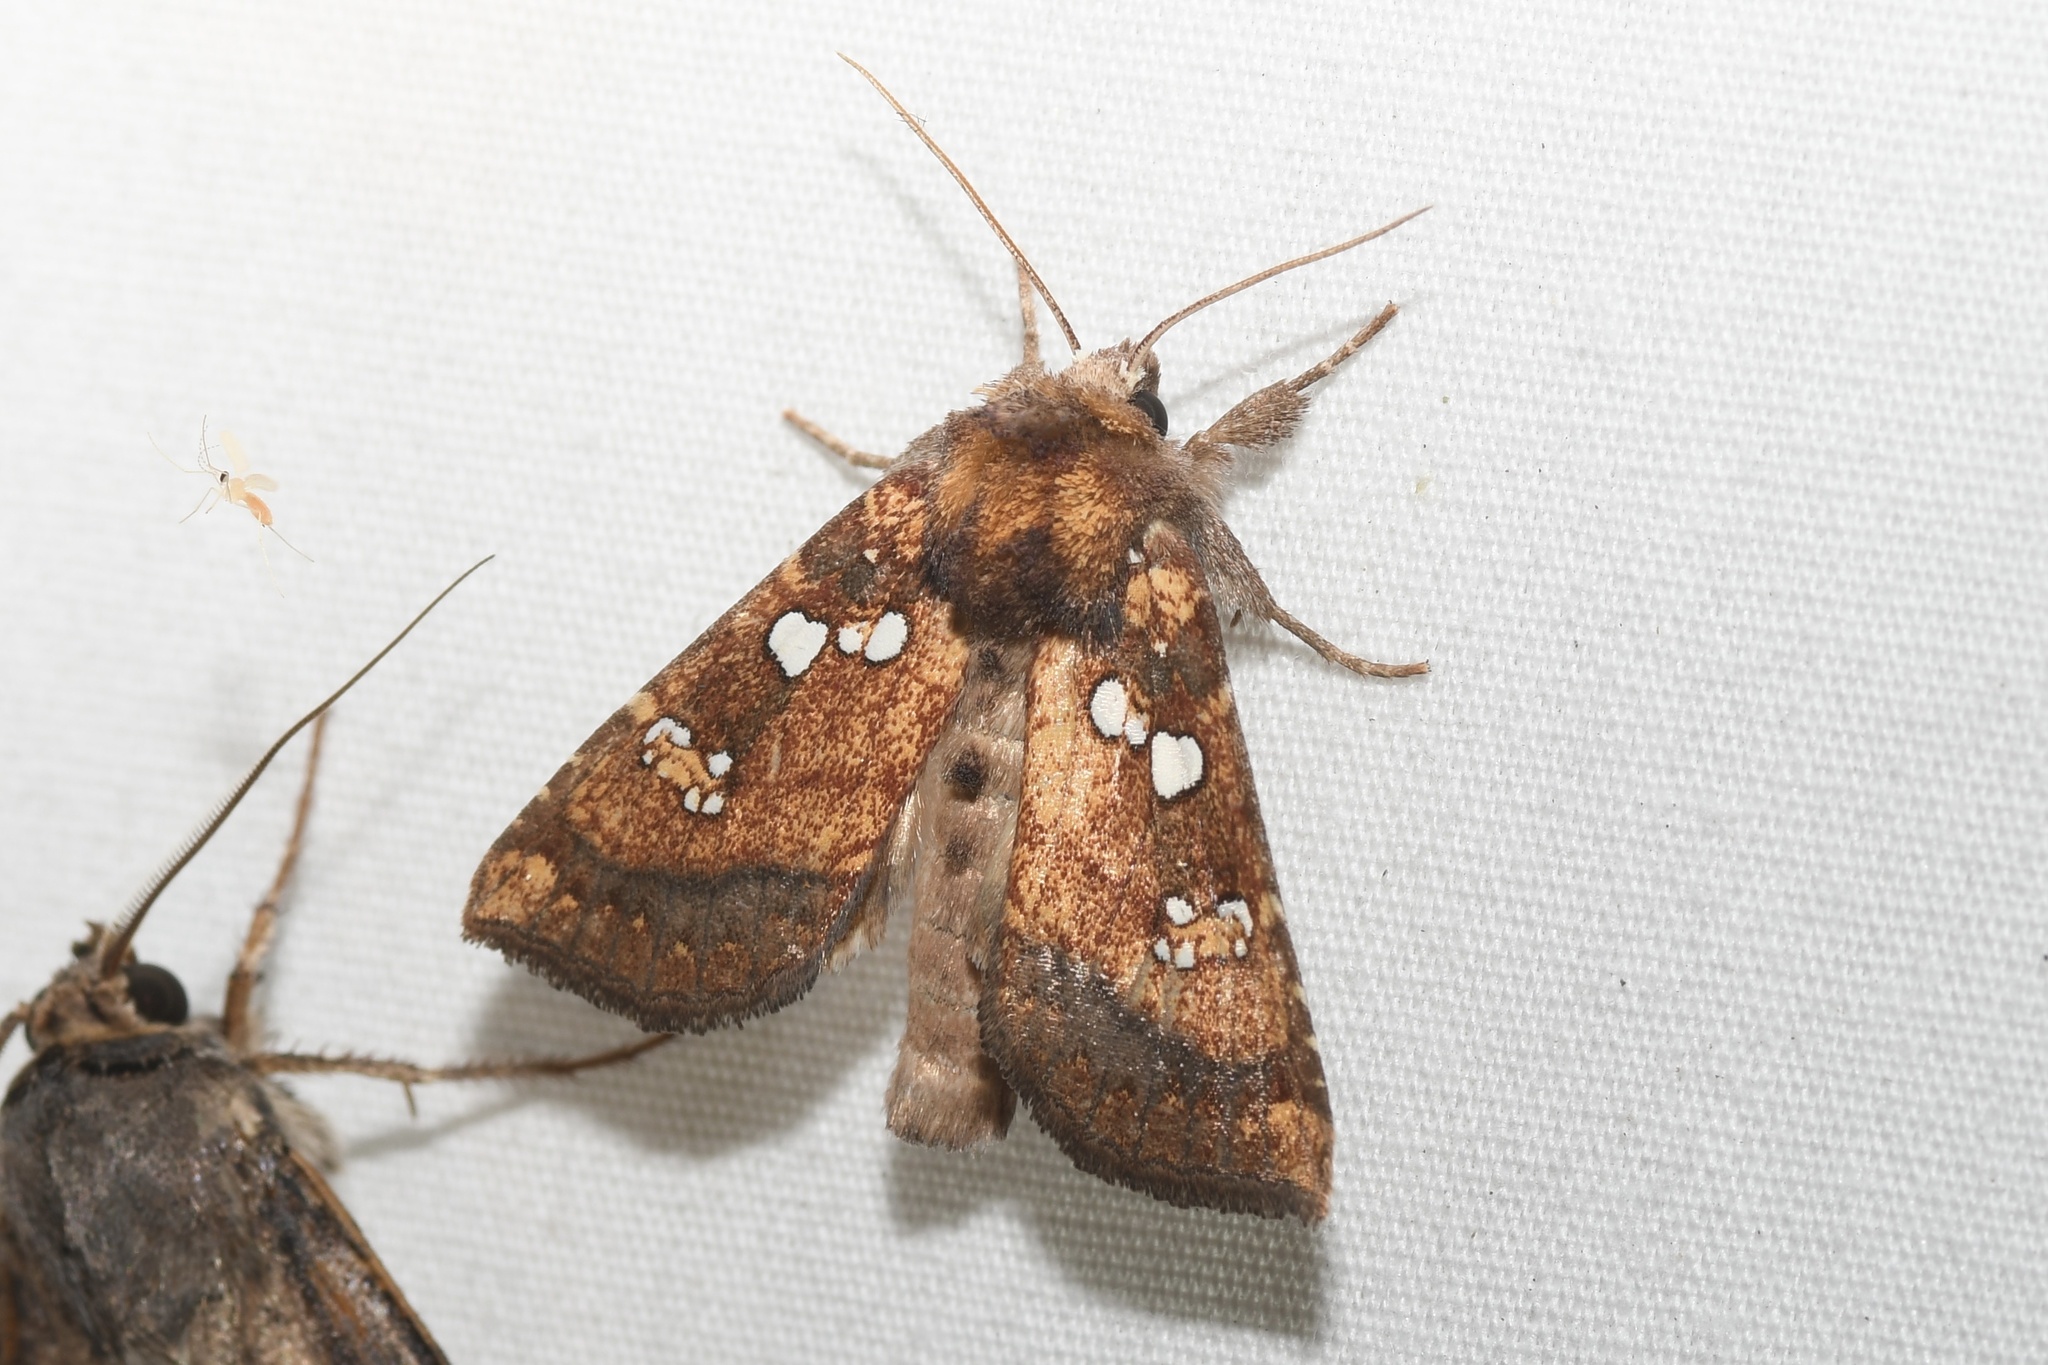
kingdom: Animalia
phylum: Arthropoda
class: Insecta
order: Lepidoptera
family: Noctuidae
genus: Papaipema
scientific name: Papaipema arctivorens
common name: Northern burdock borer moth
